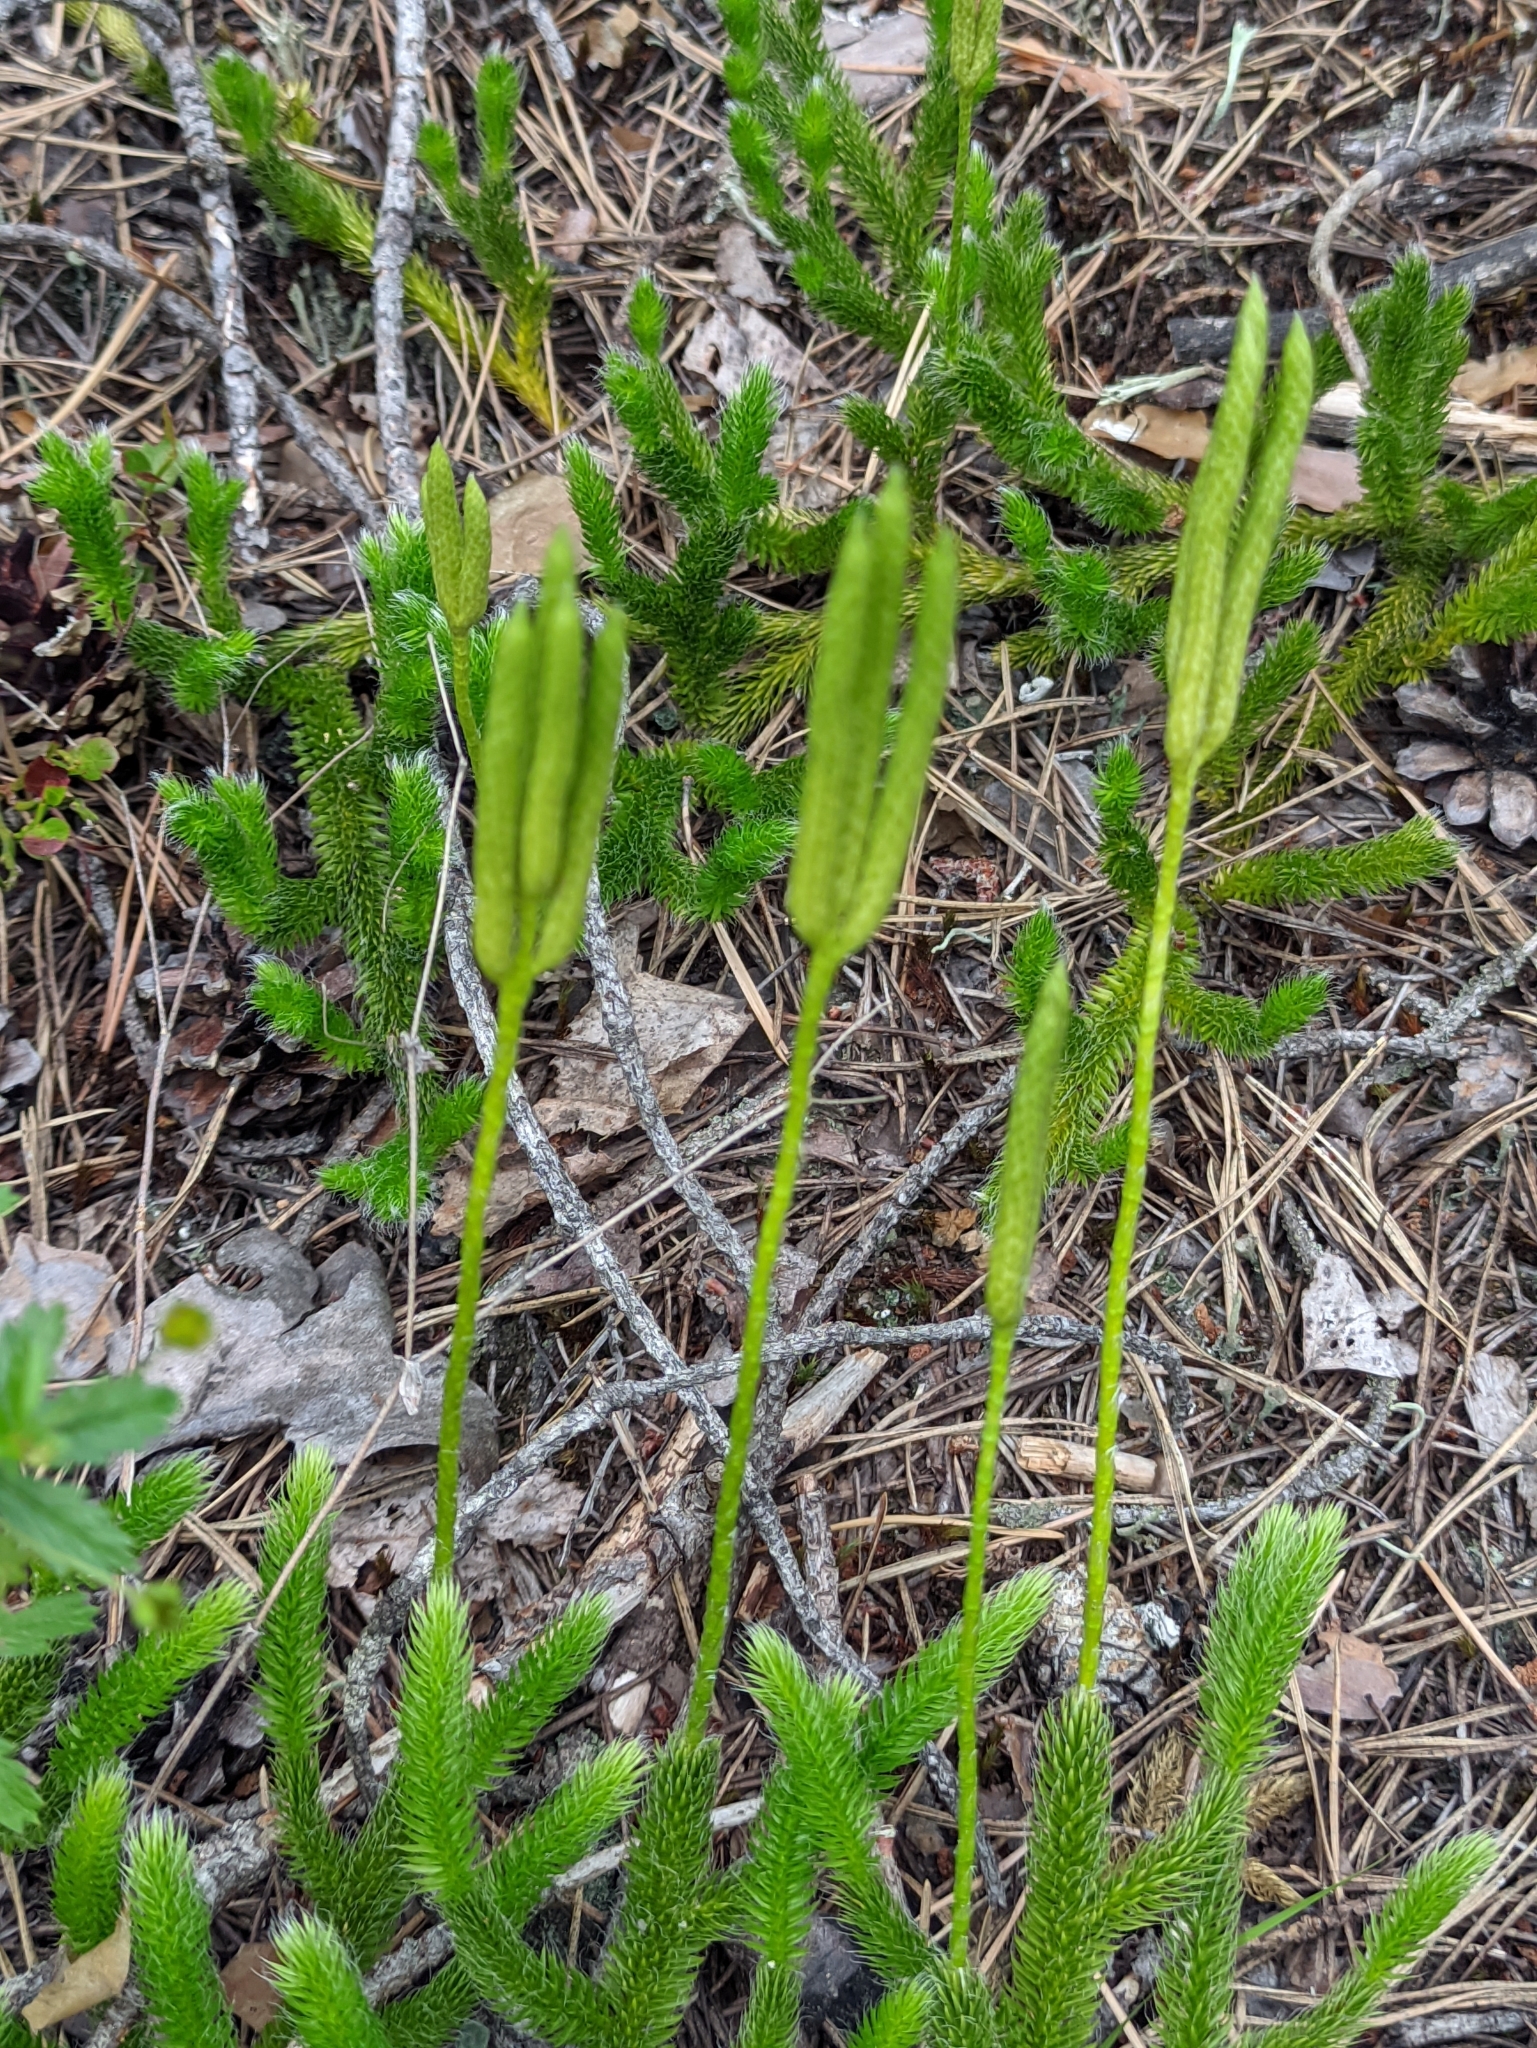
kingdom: Plantae
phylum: Tracheophyta
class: Lycopodiopsida
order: Lycopodiales
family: Lycopodiaceae
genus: Lycopodium
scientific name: Lycopodium clavatum
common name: Stag's-horn clubmoss
